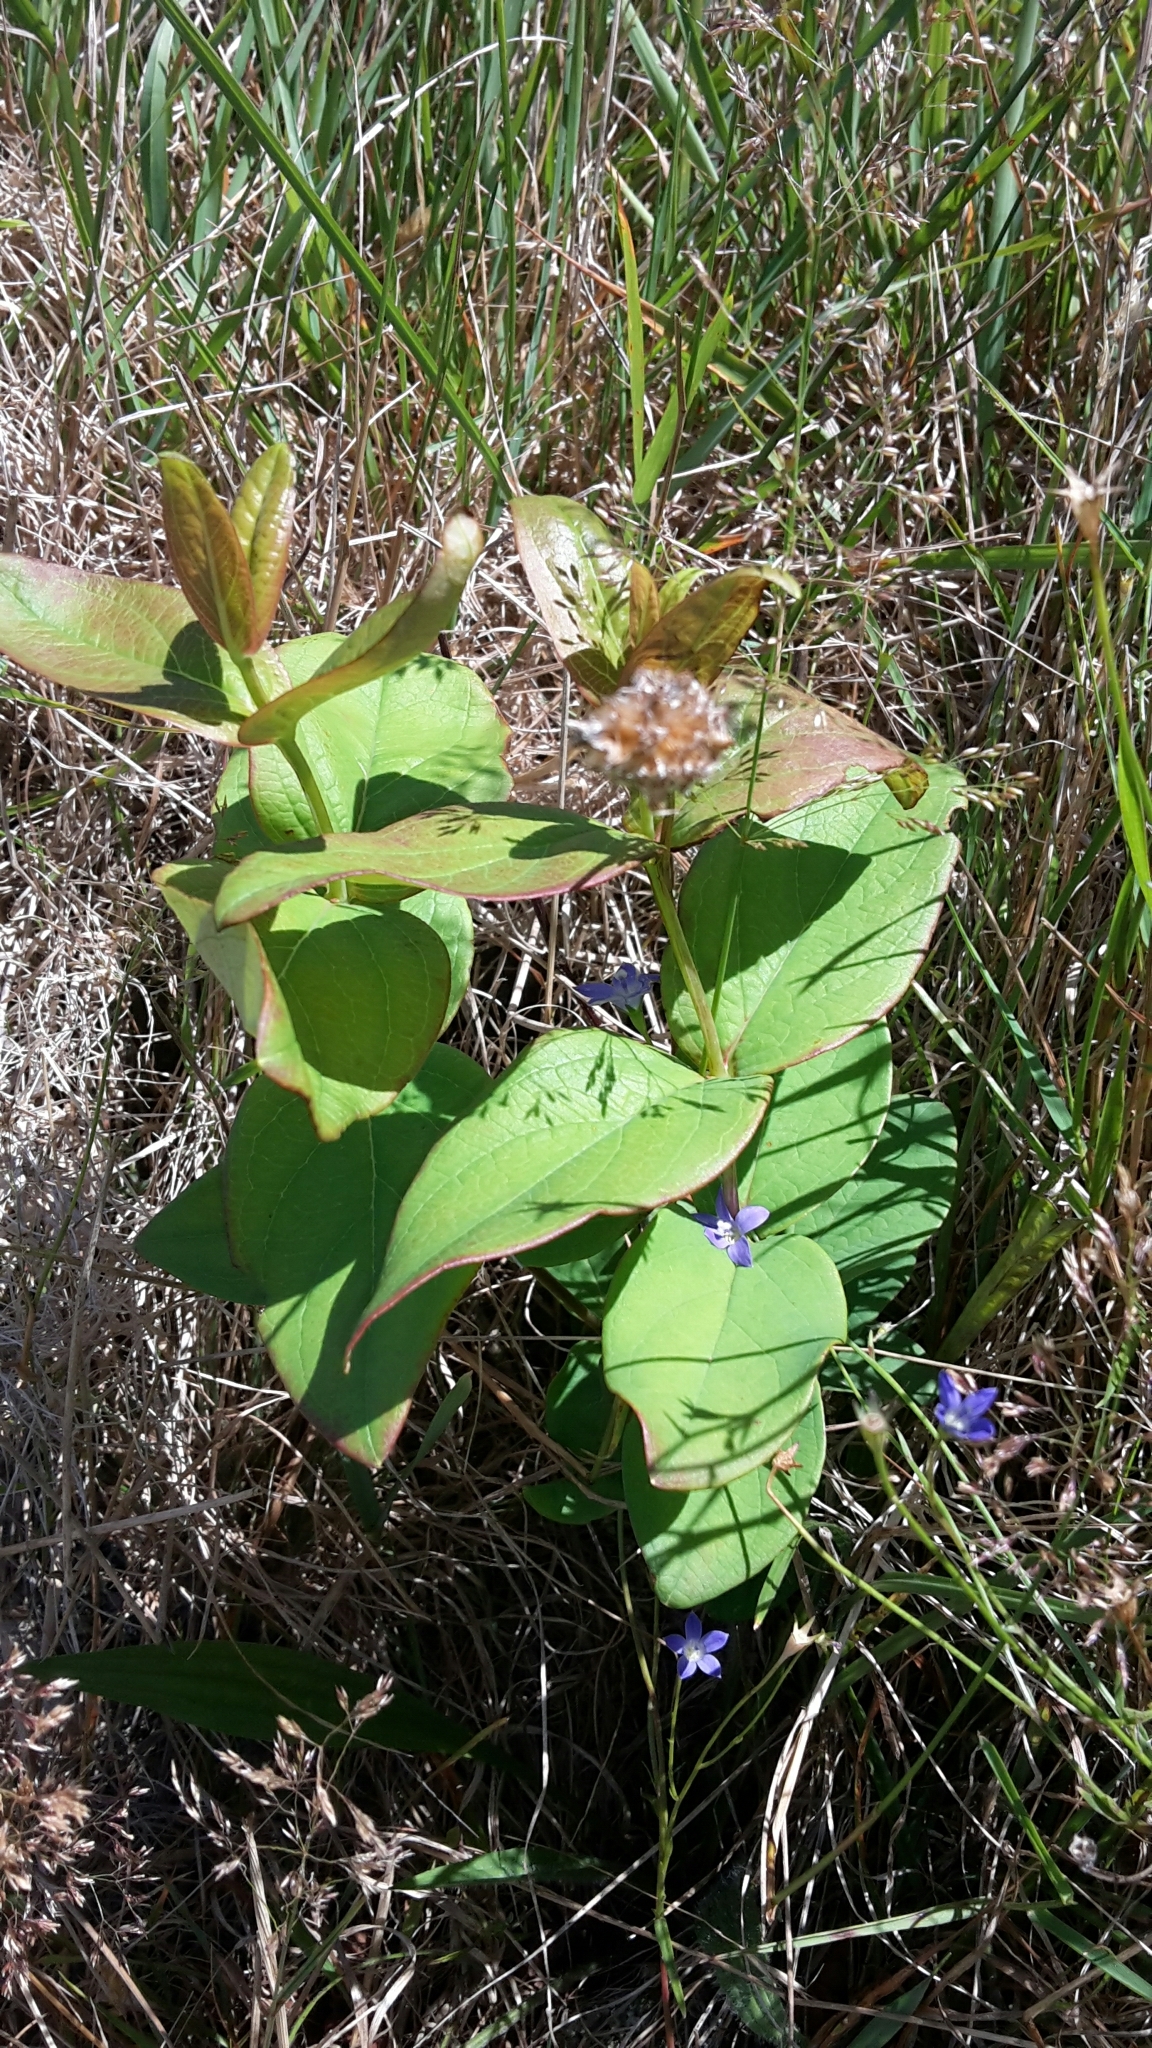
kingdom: Plantae
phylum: Tracheophyta
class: Magnoliopsida
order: Malpighiales
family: Hypericaceae
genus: Hypericum
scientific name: Hypericum androsaemum
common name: Sweet-amber
